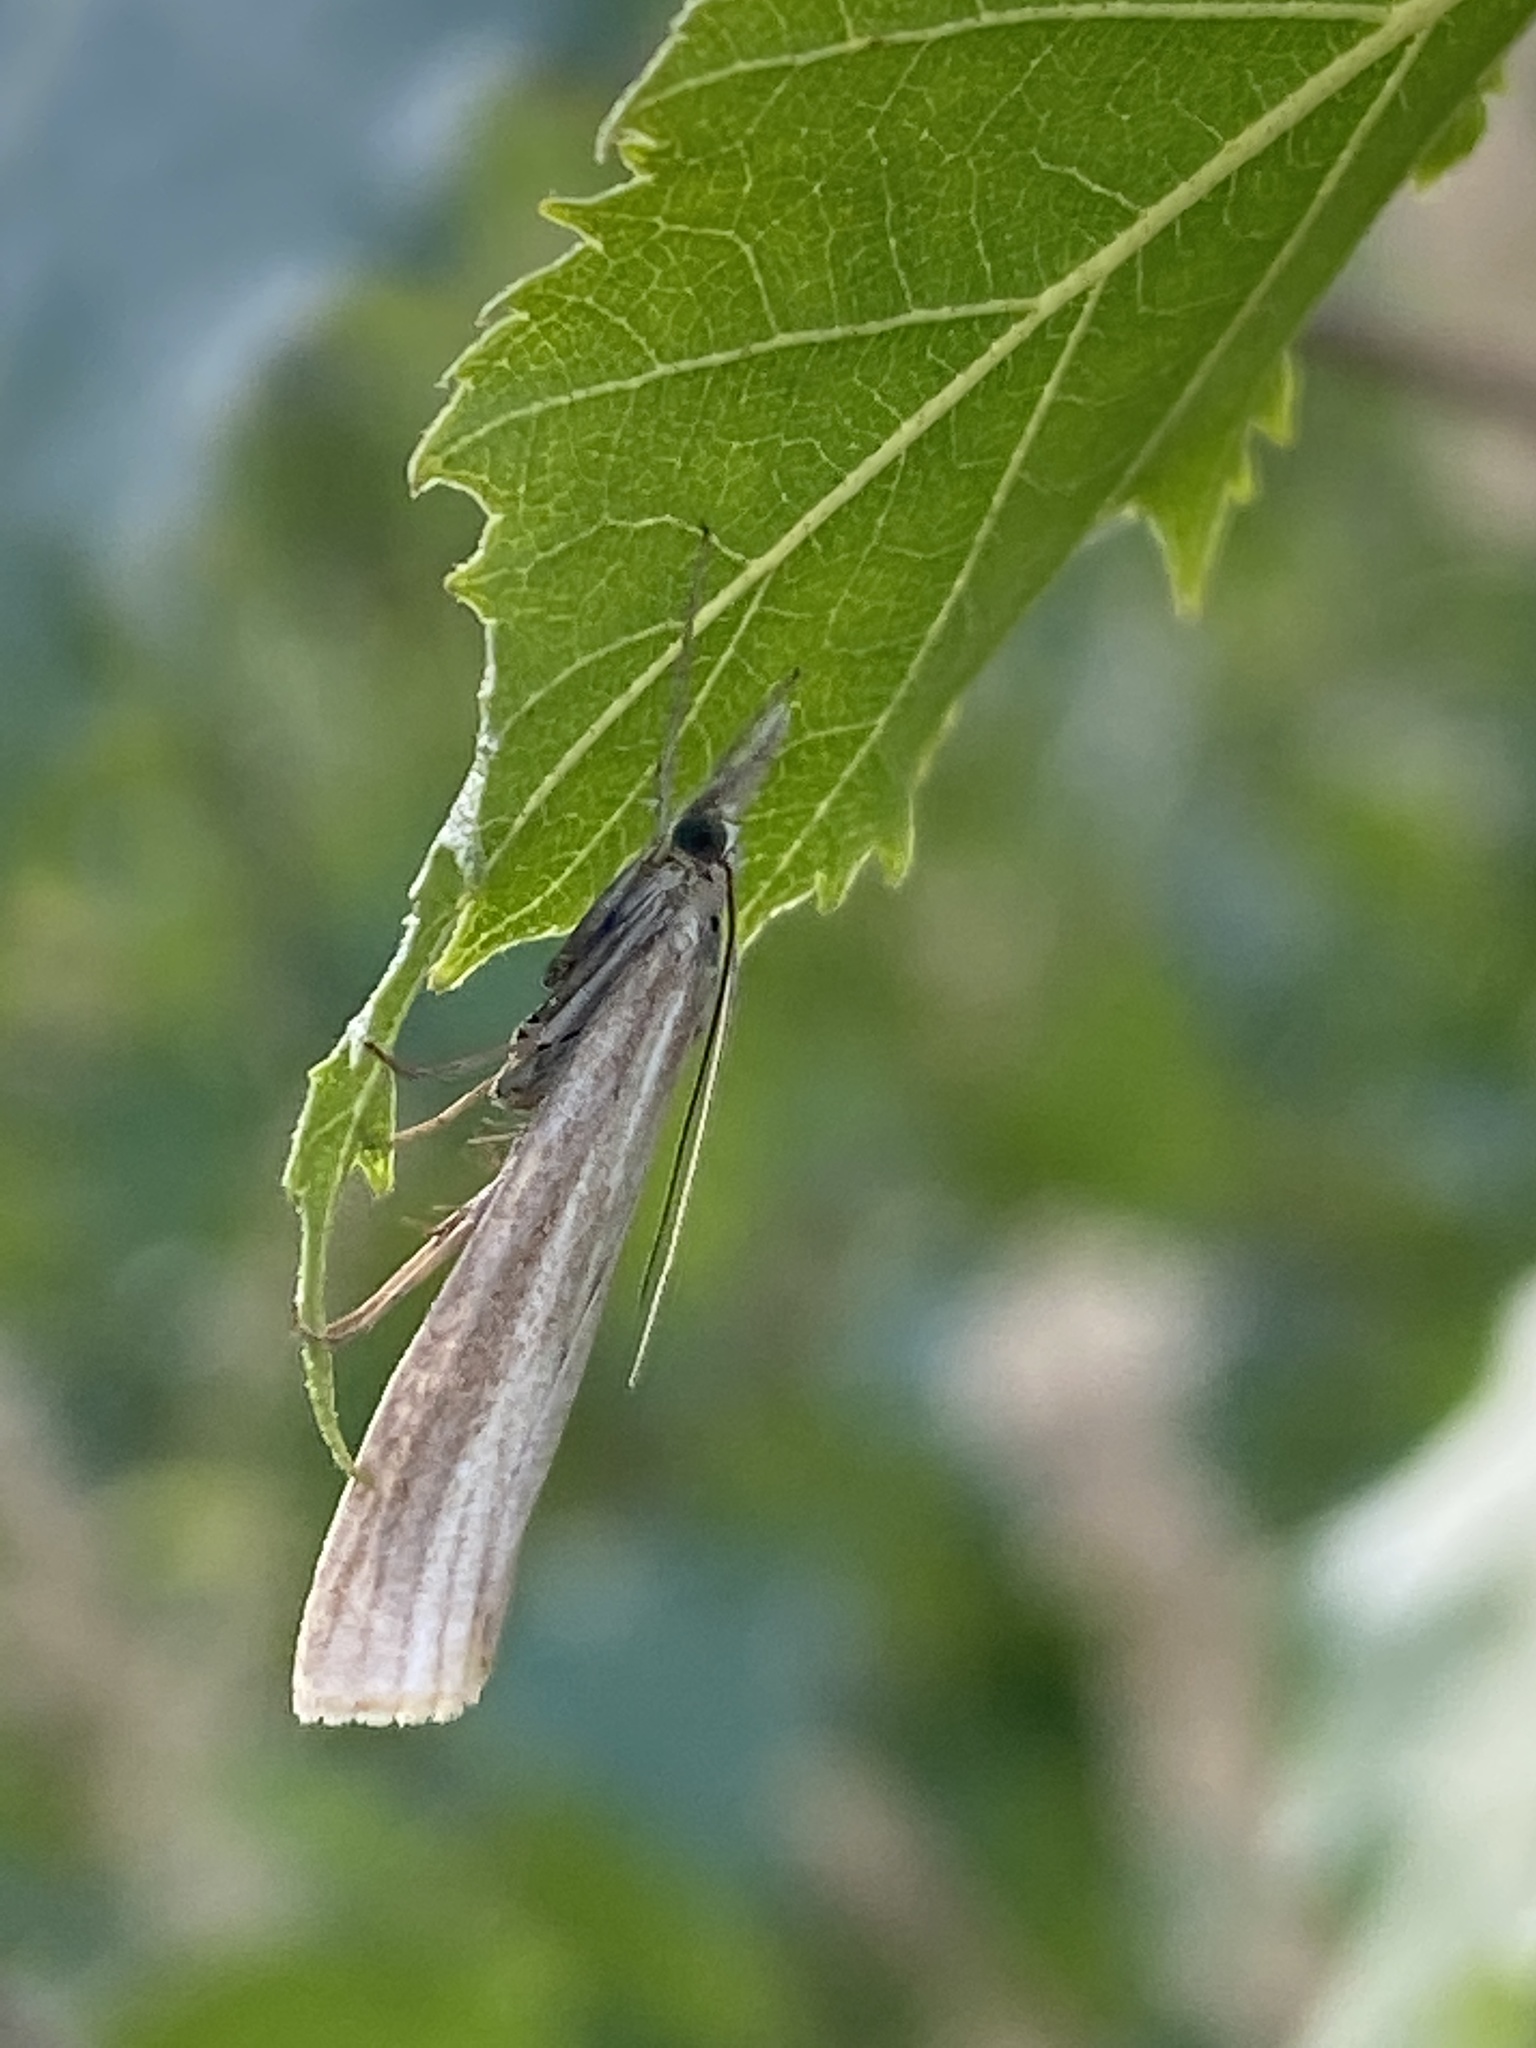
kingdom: Animalia
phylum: Arthropoda
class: Insecta
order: Lepidoptera
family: Crambidae
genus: Agriphila
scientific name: Agriphila tristellus
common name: Common grass-veneer
